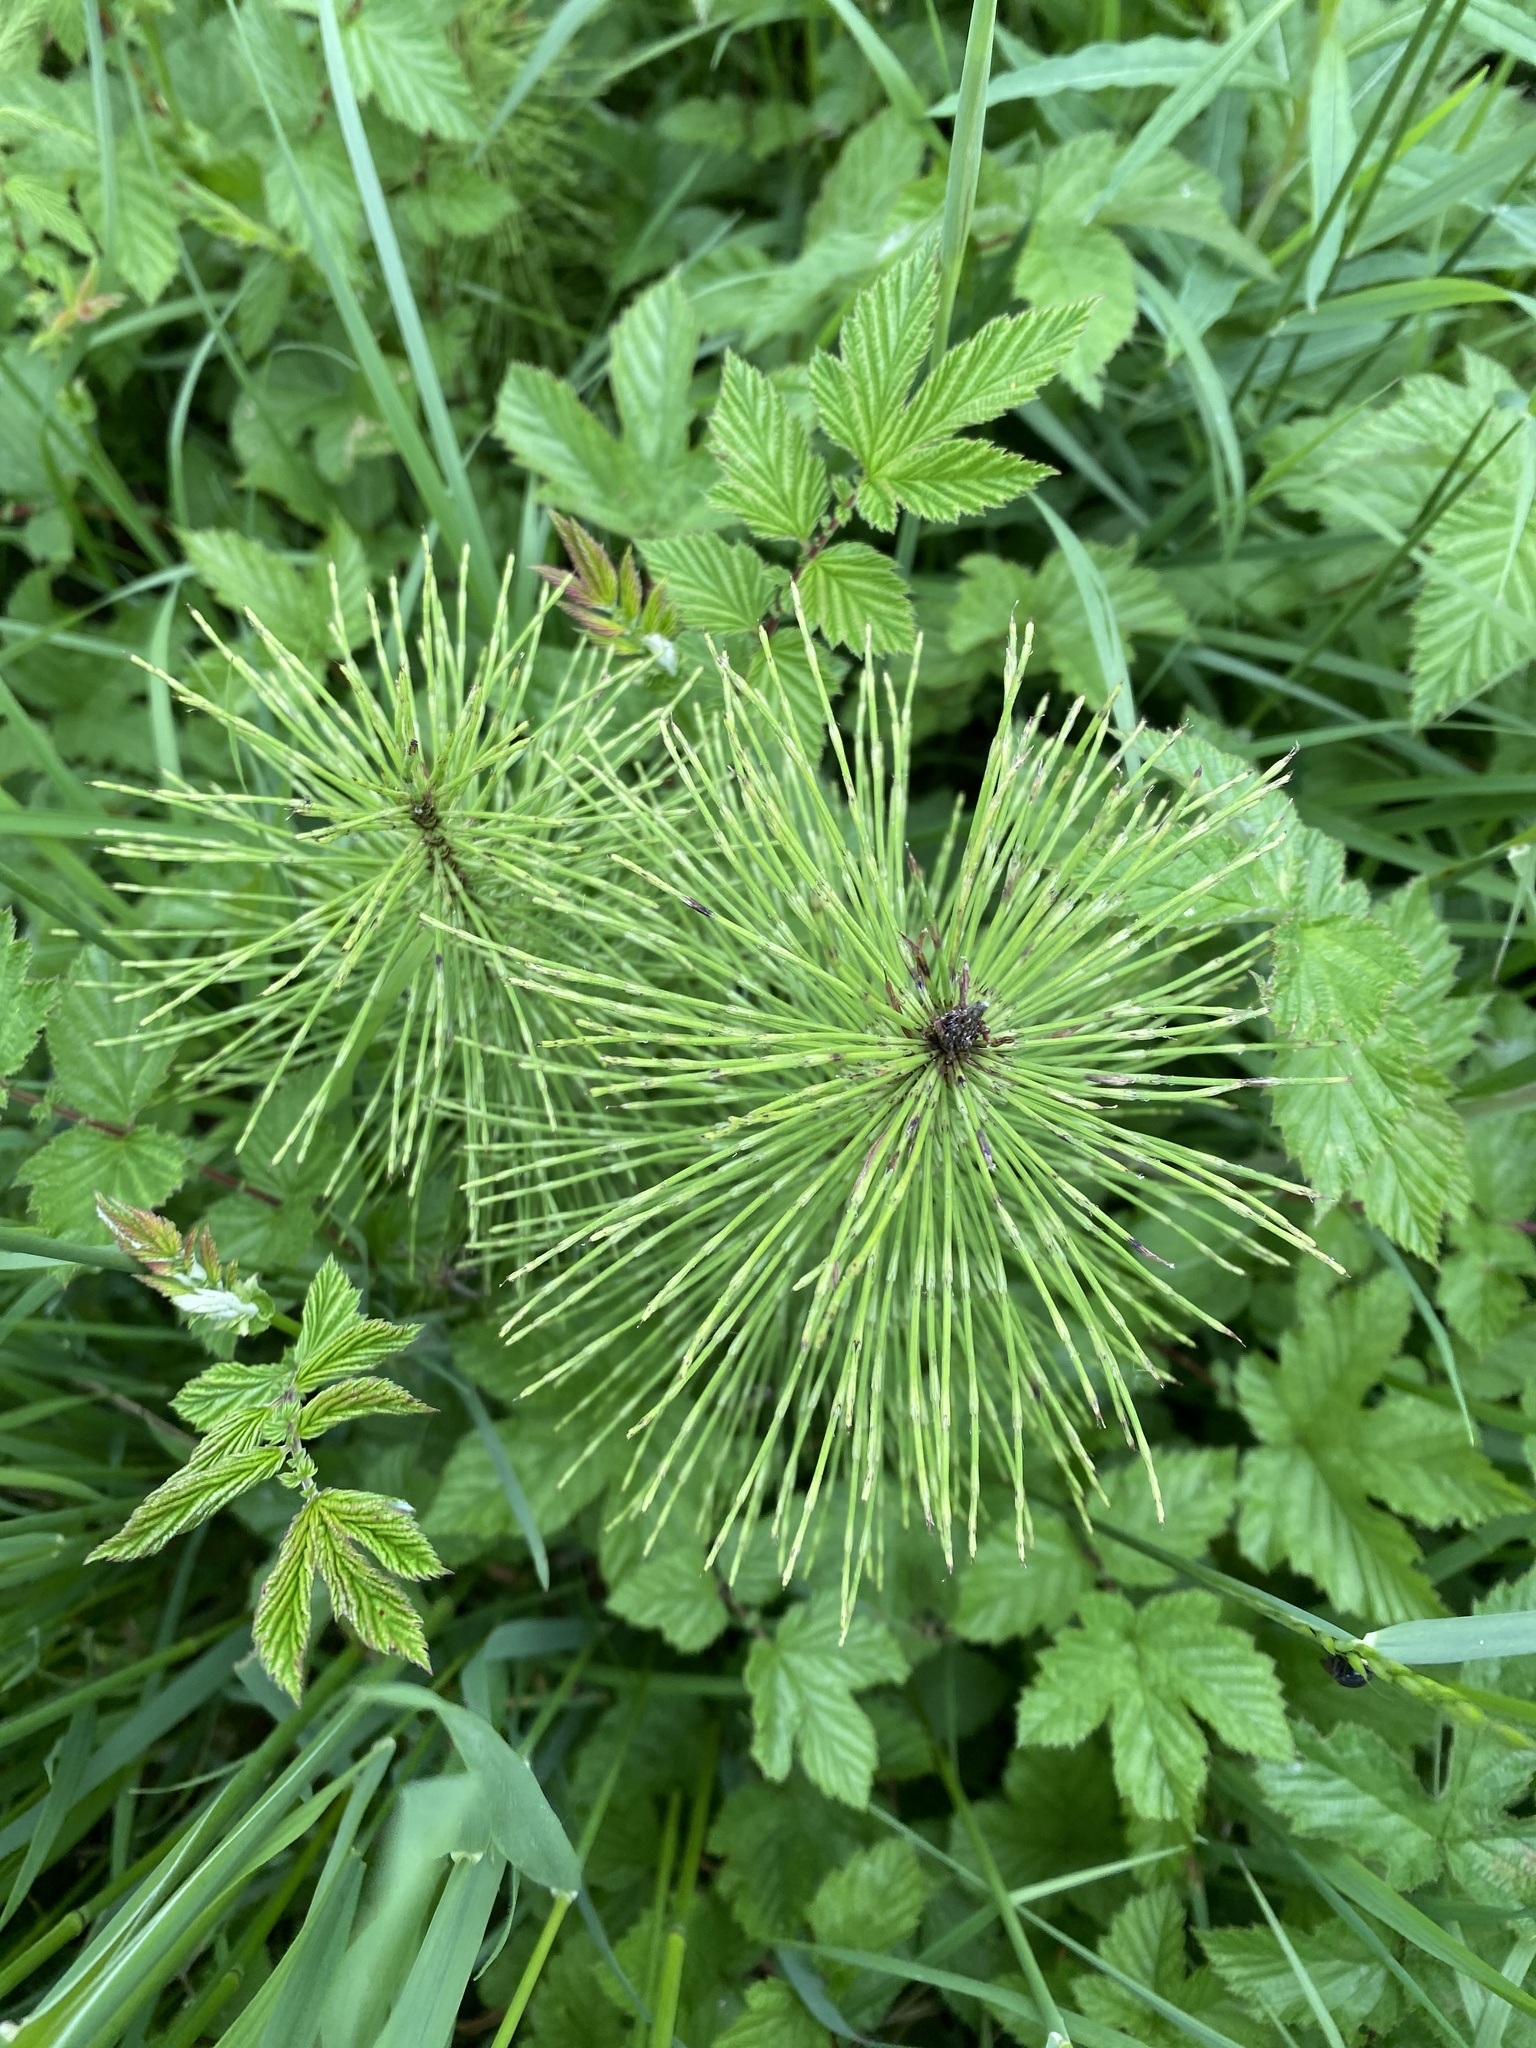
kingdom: Plantae
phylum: Tracheophyta
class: Polypodiopsida
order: Equisetales
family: Equisetaceae
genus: Equisetum
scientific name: Equisetum telmateia
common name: Great horsetail
